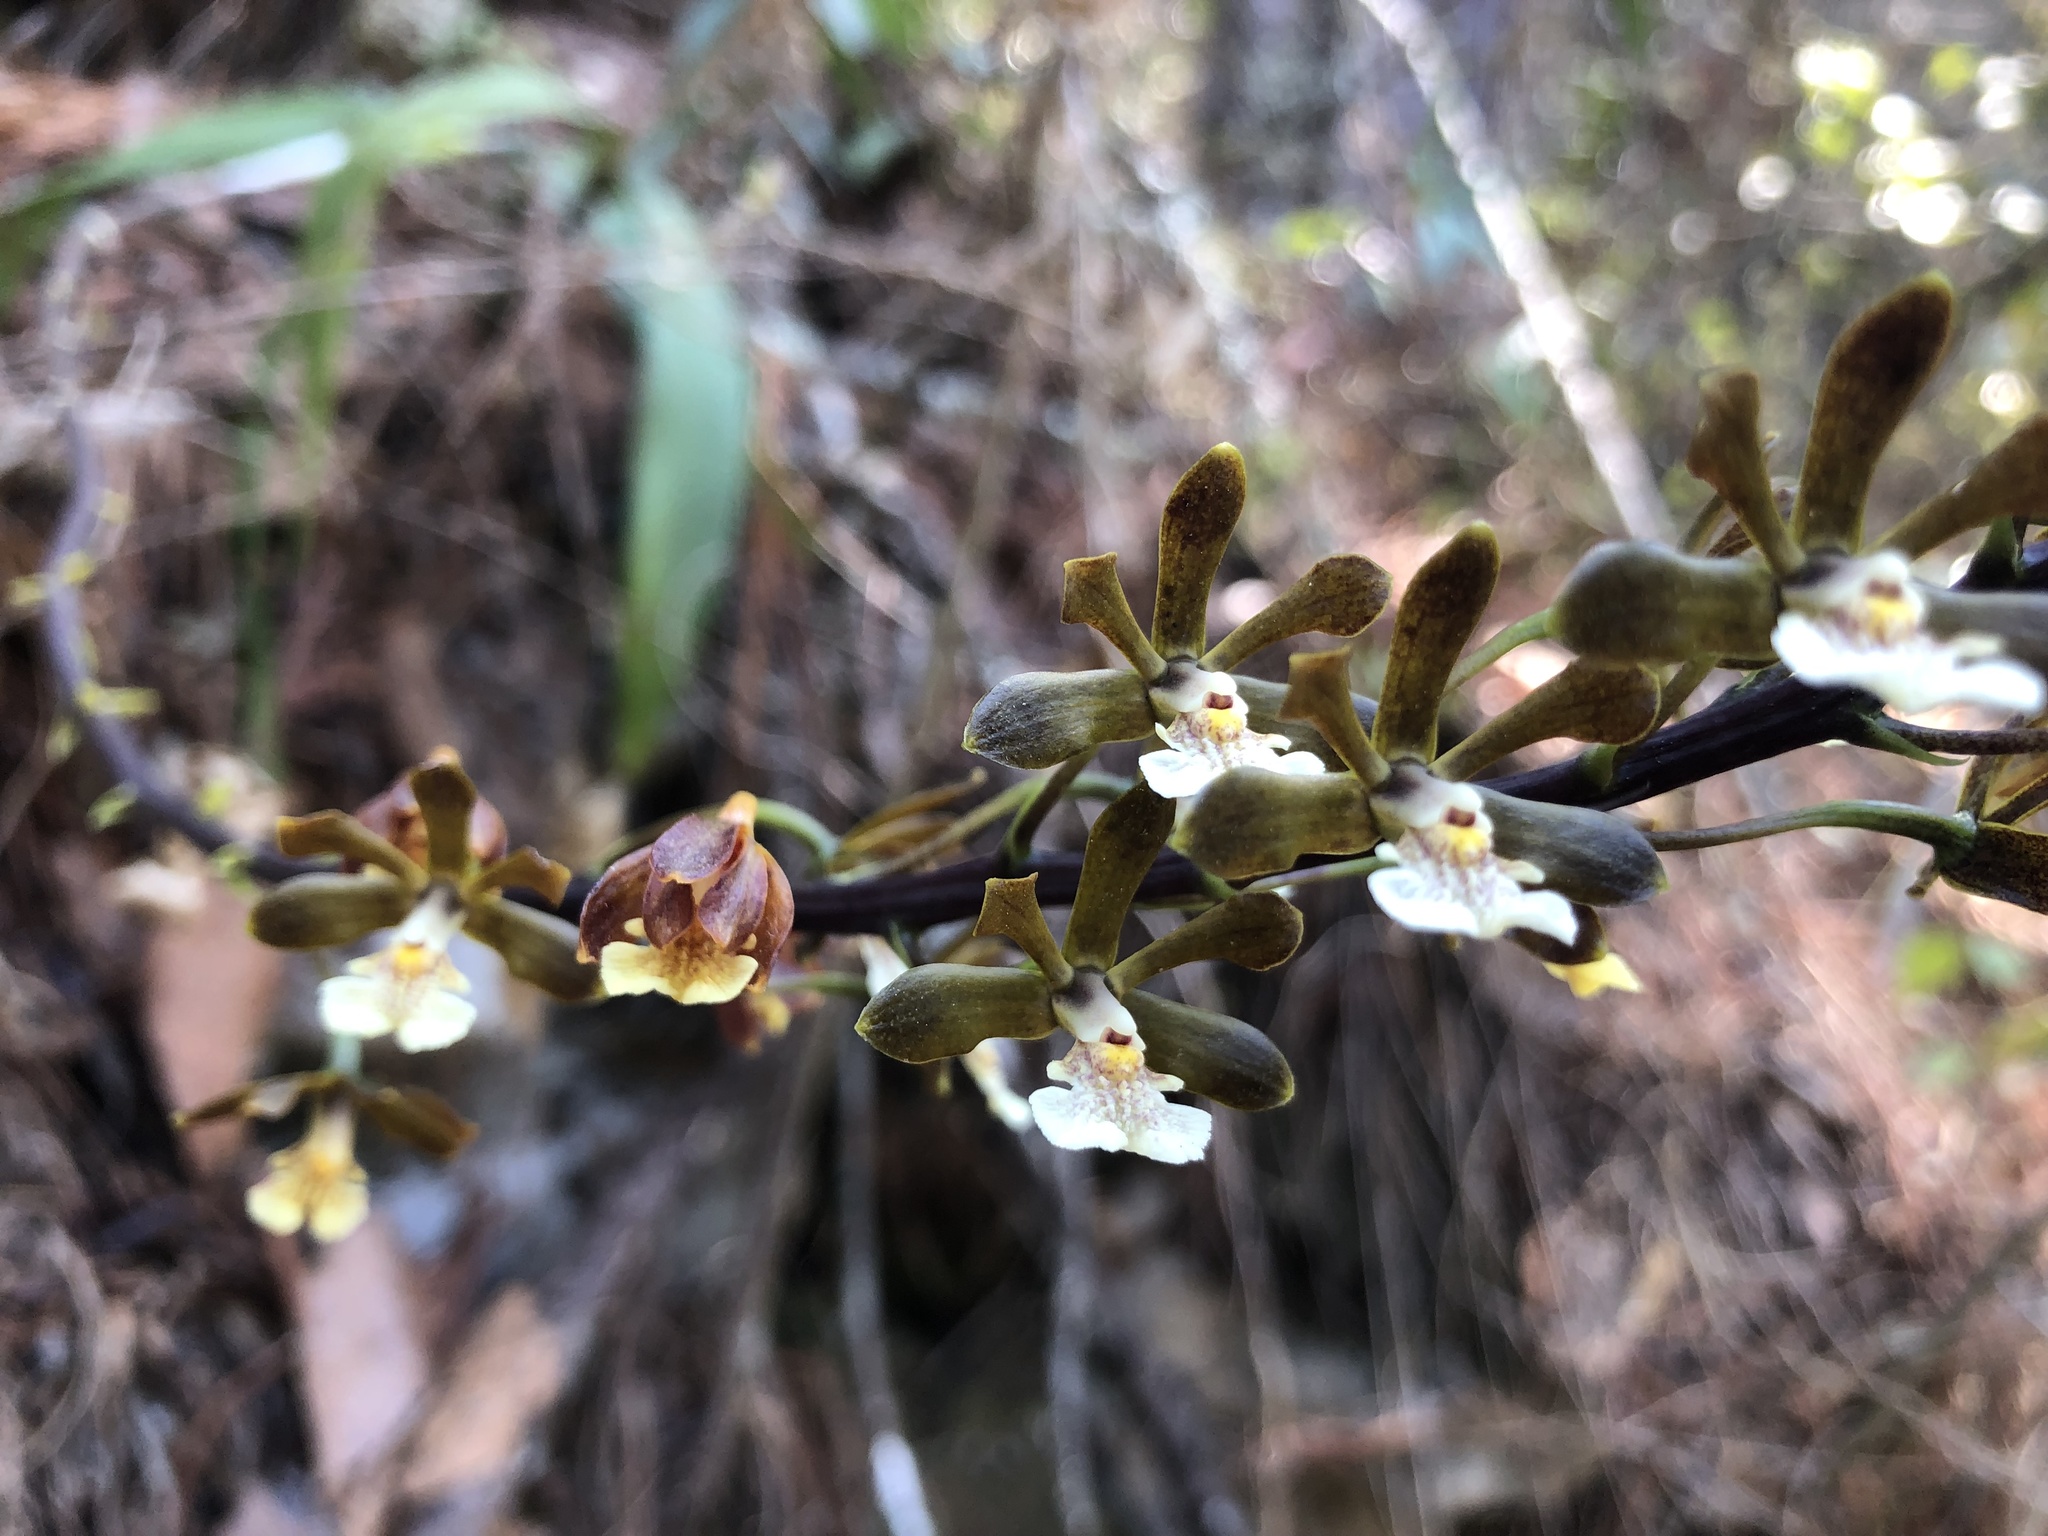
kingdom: Plantae
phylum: Tracheophyta
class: Liliopsida
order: Asparagales
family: Orchidaceae
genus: Prosthechea
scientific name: Prosthechea varicosa
